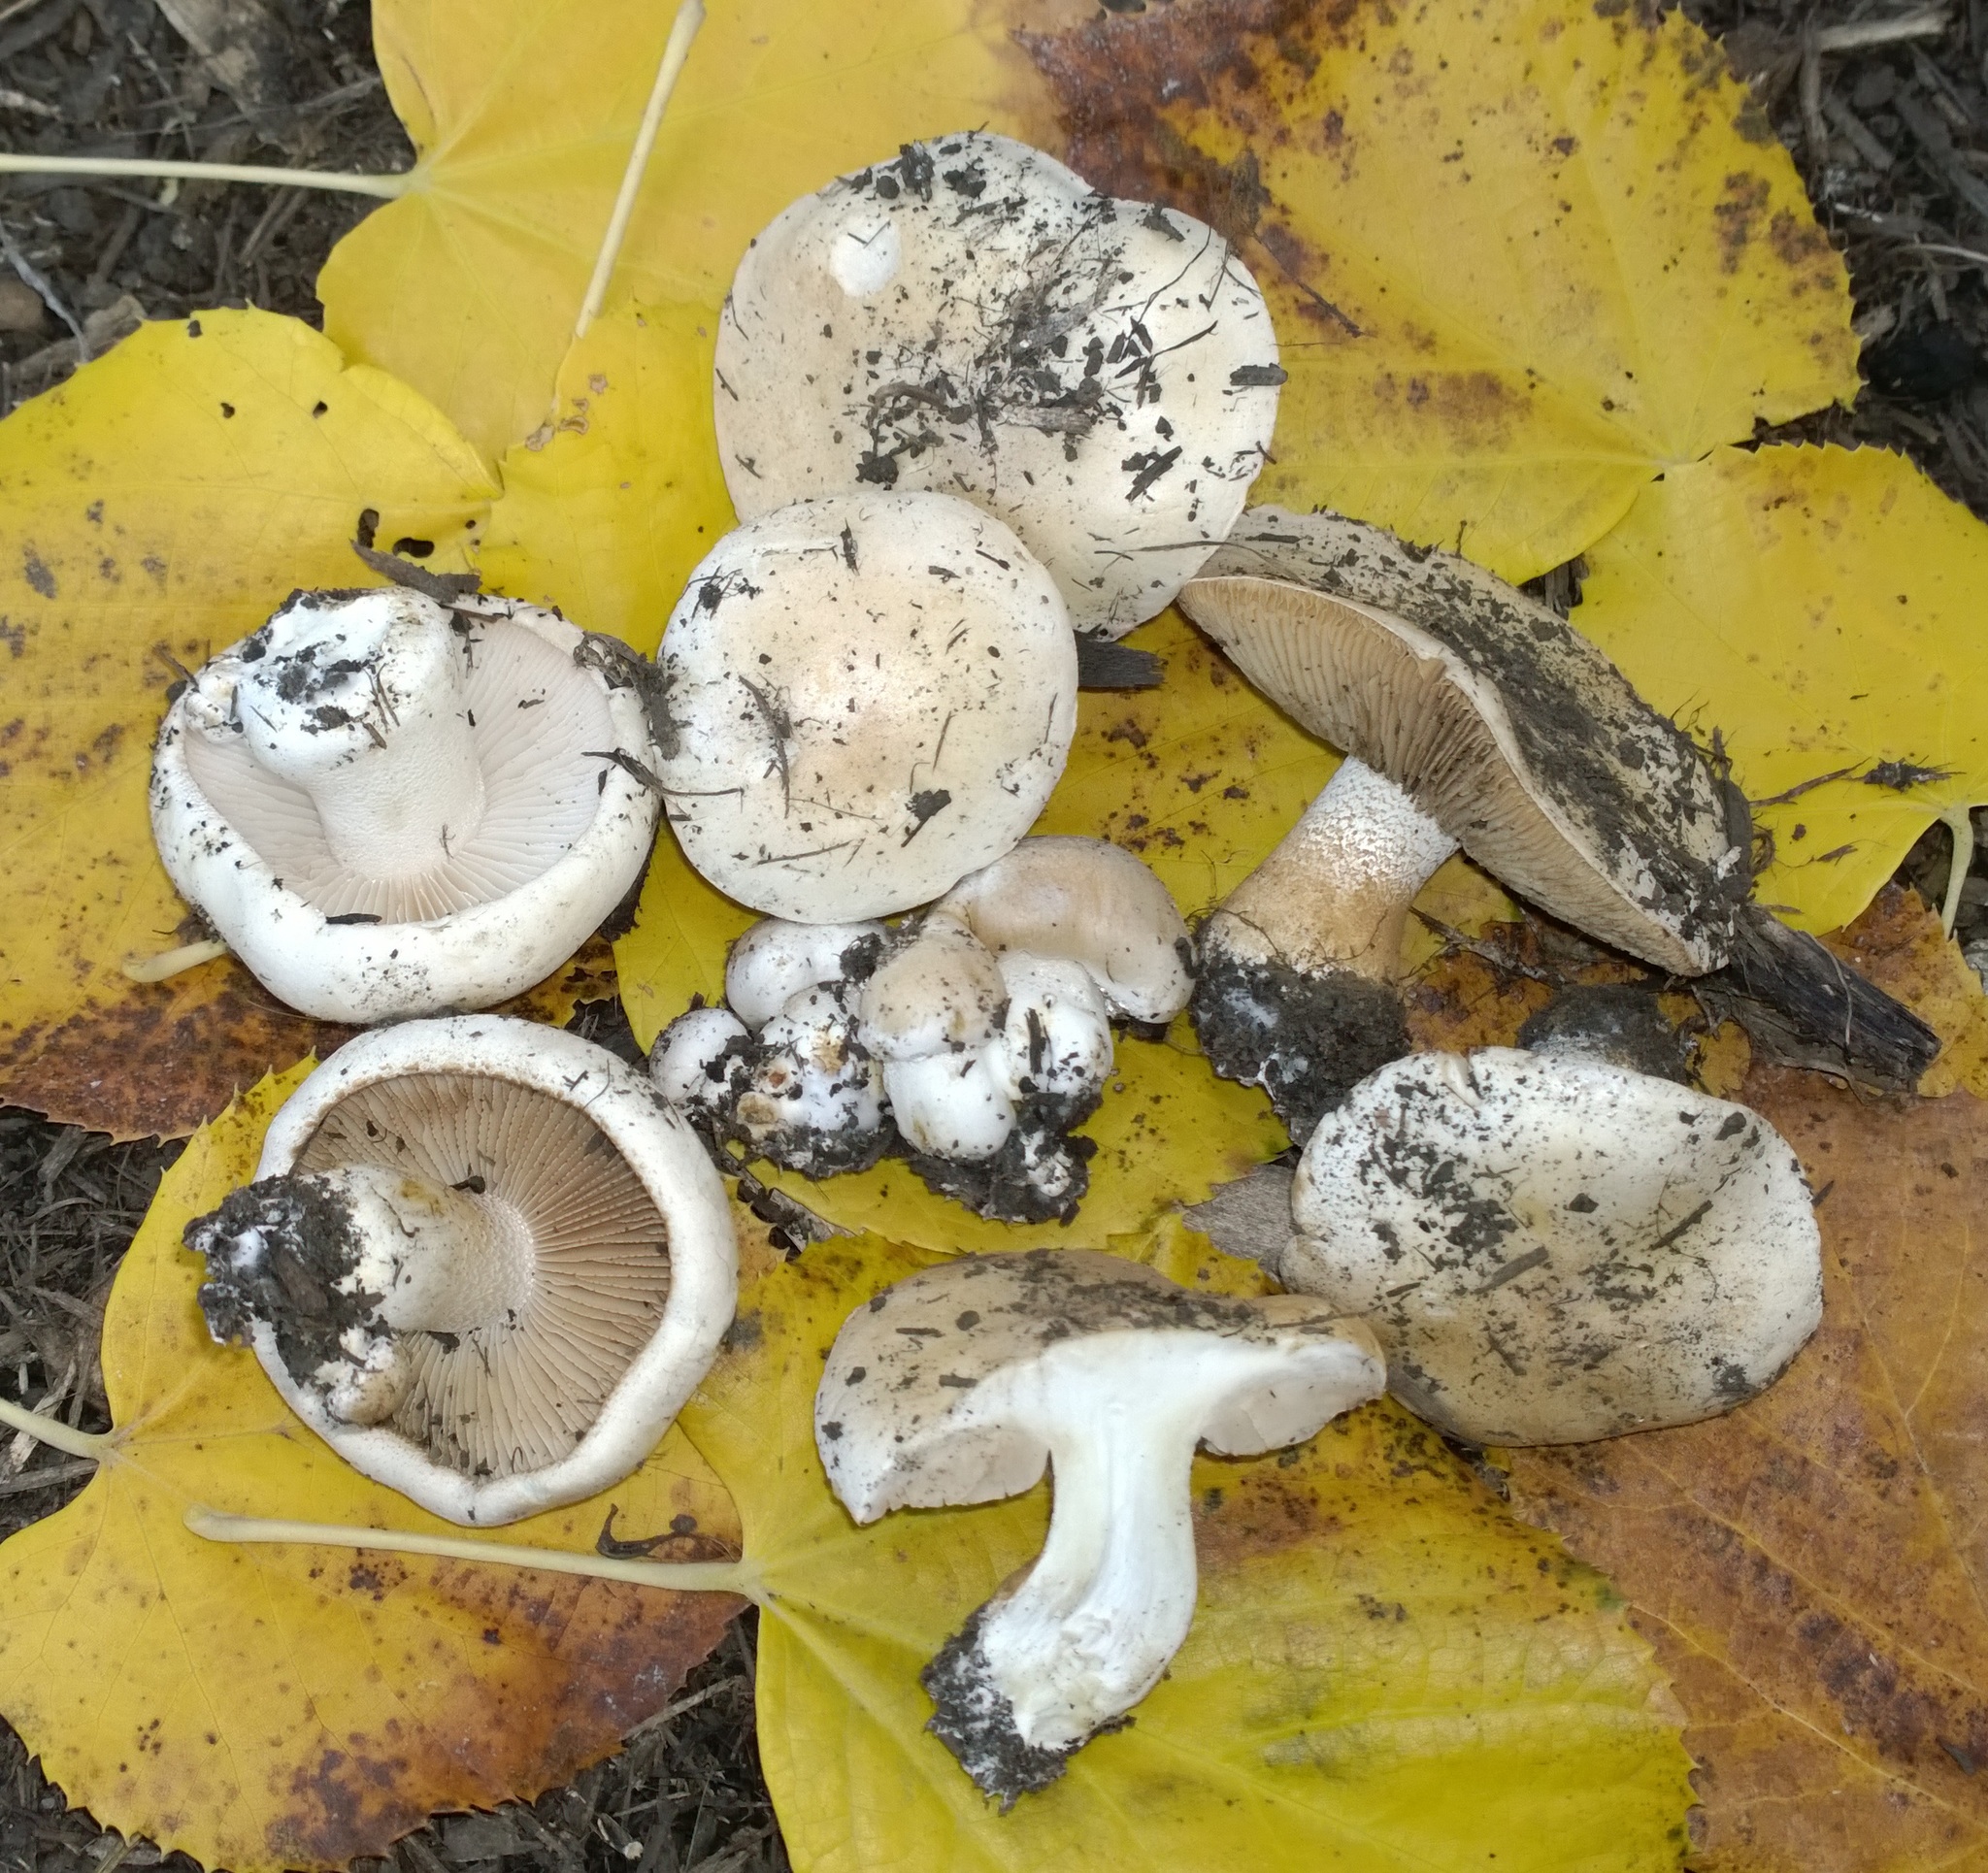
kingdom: Fungi
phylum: Basidiomycota
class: Agaricomycetes
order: Agaricales
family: Hymenogastraceae
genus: Hebeloma
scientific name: Hebeloma crustuliniforme
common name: Poison pie
